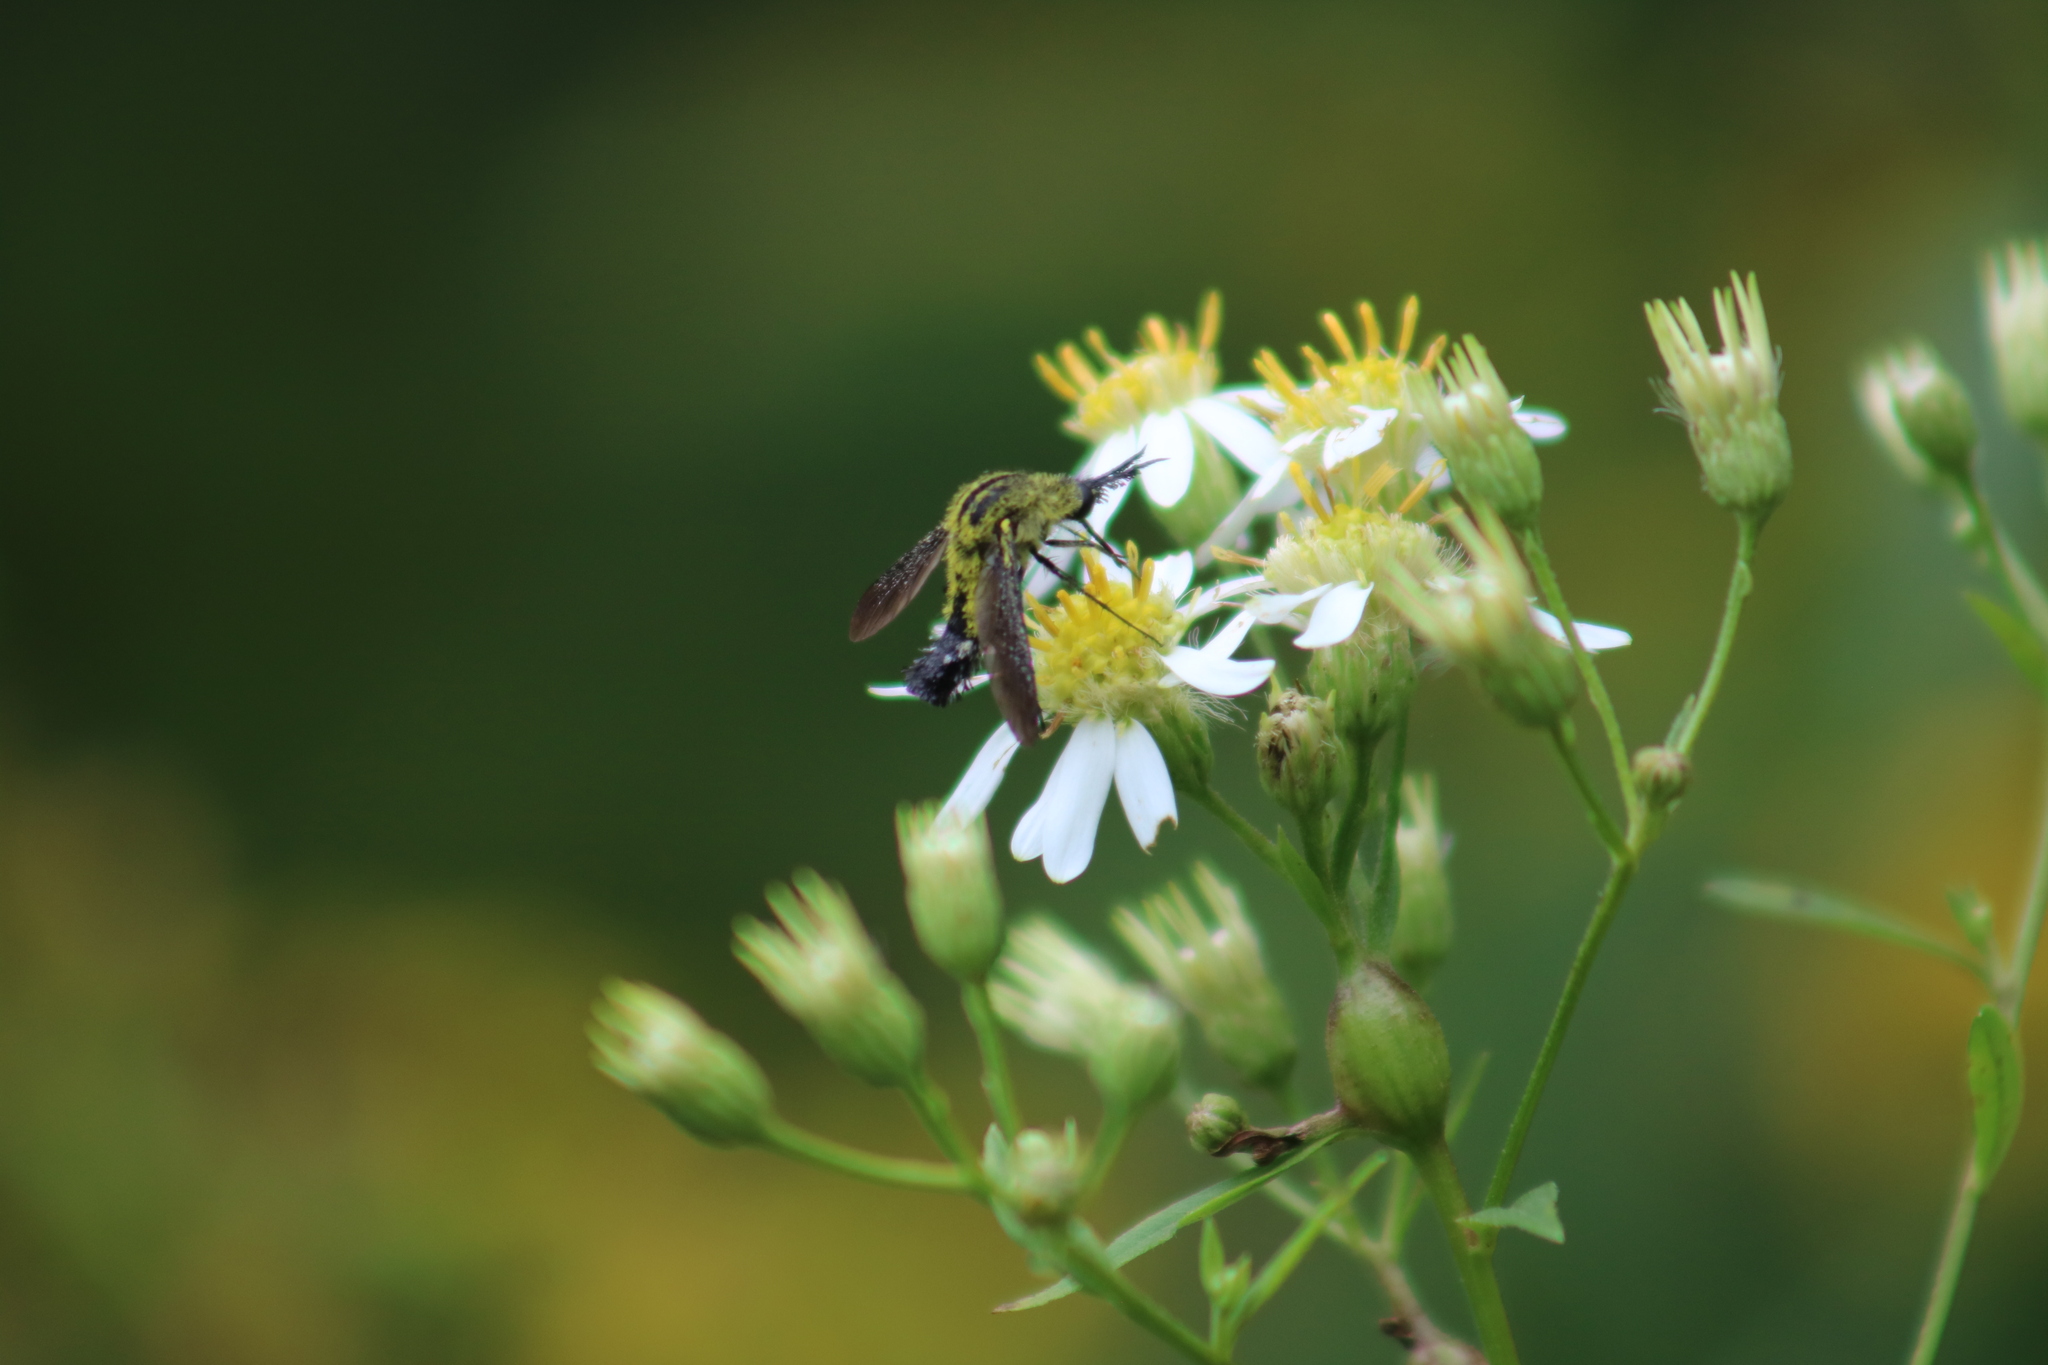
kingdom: Animalia
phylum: Arthropoda
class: Insecta
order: Diptera
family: Bombyliidae
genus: Lepidophora
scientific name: Lepidophora lutea
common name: Hunchback bee fly
